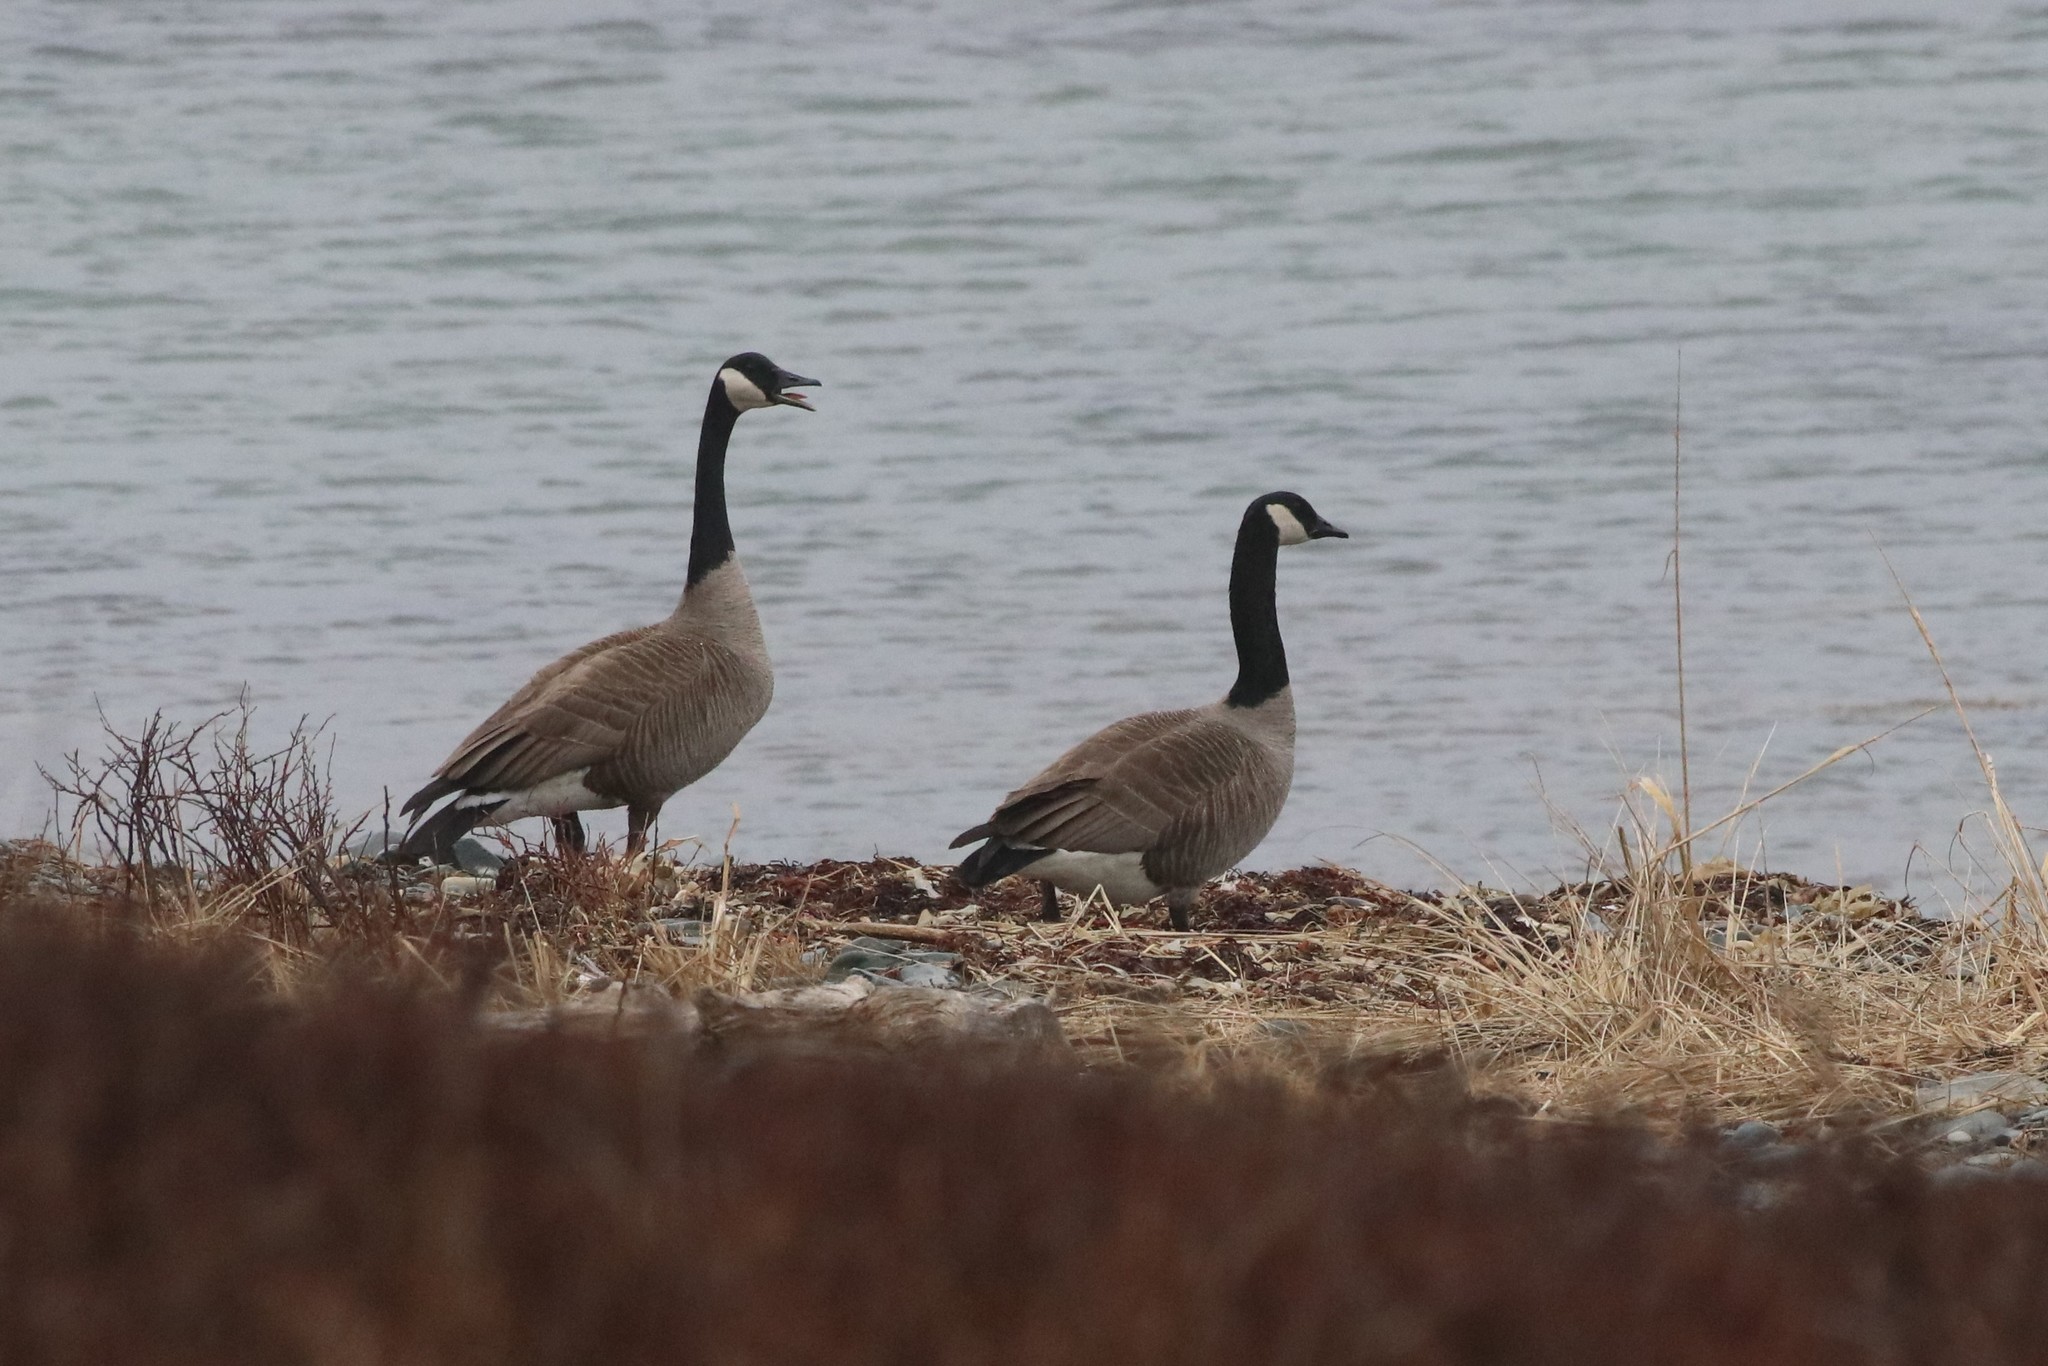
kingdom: Animalia
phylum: Chordata
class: Aves
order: Anseriformes
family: Anatidae
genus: Branta
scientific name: Branta canadensis
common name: Canada goose
